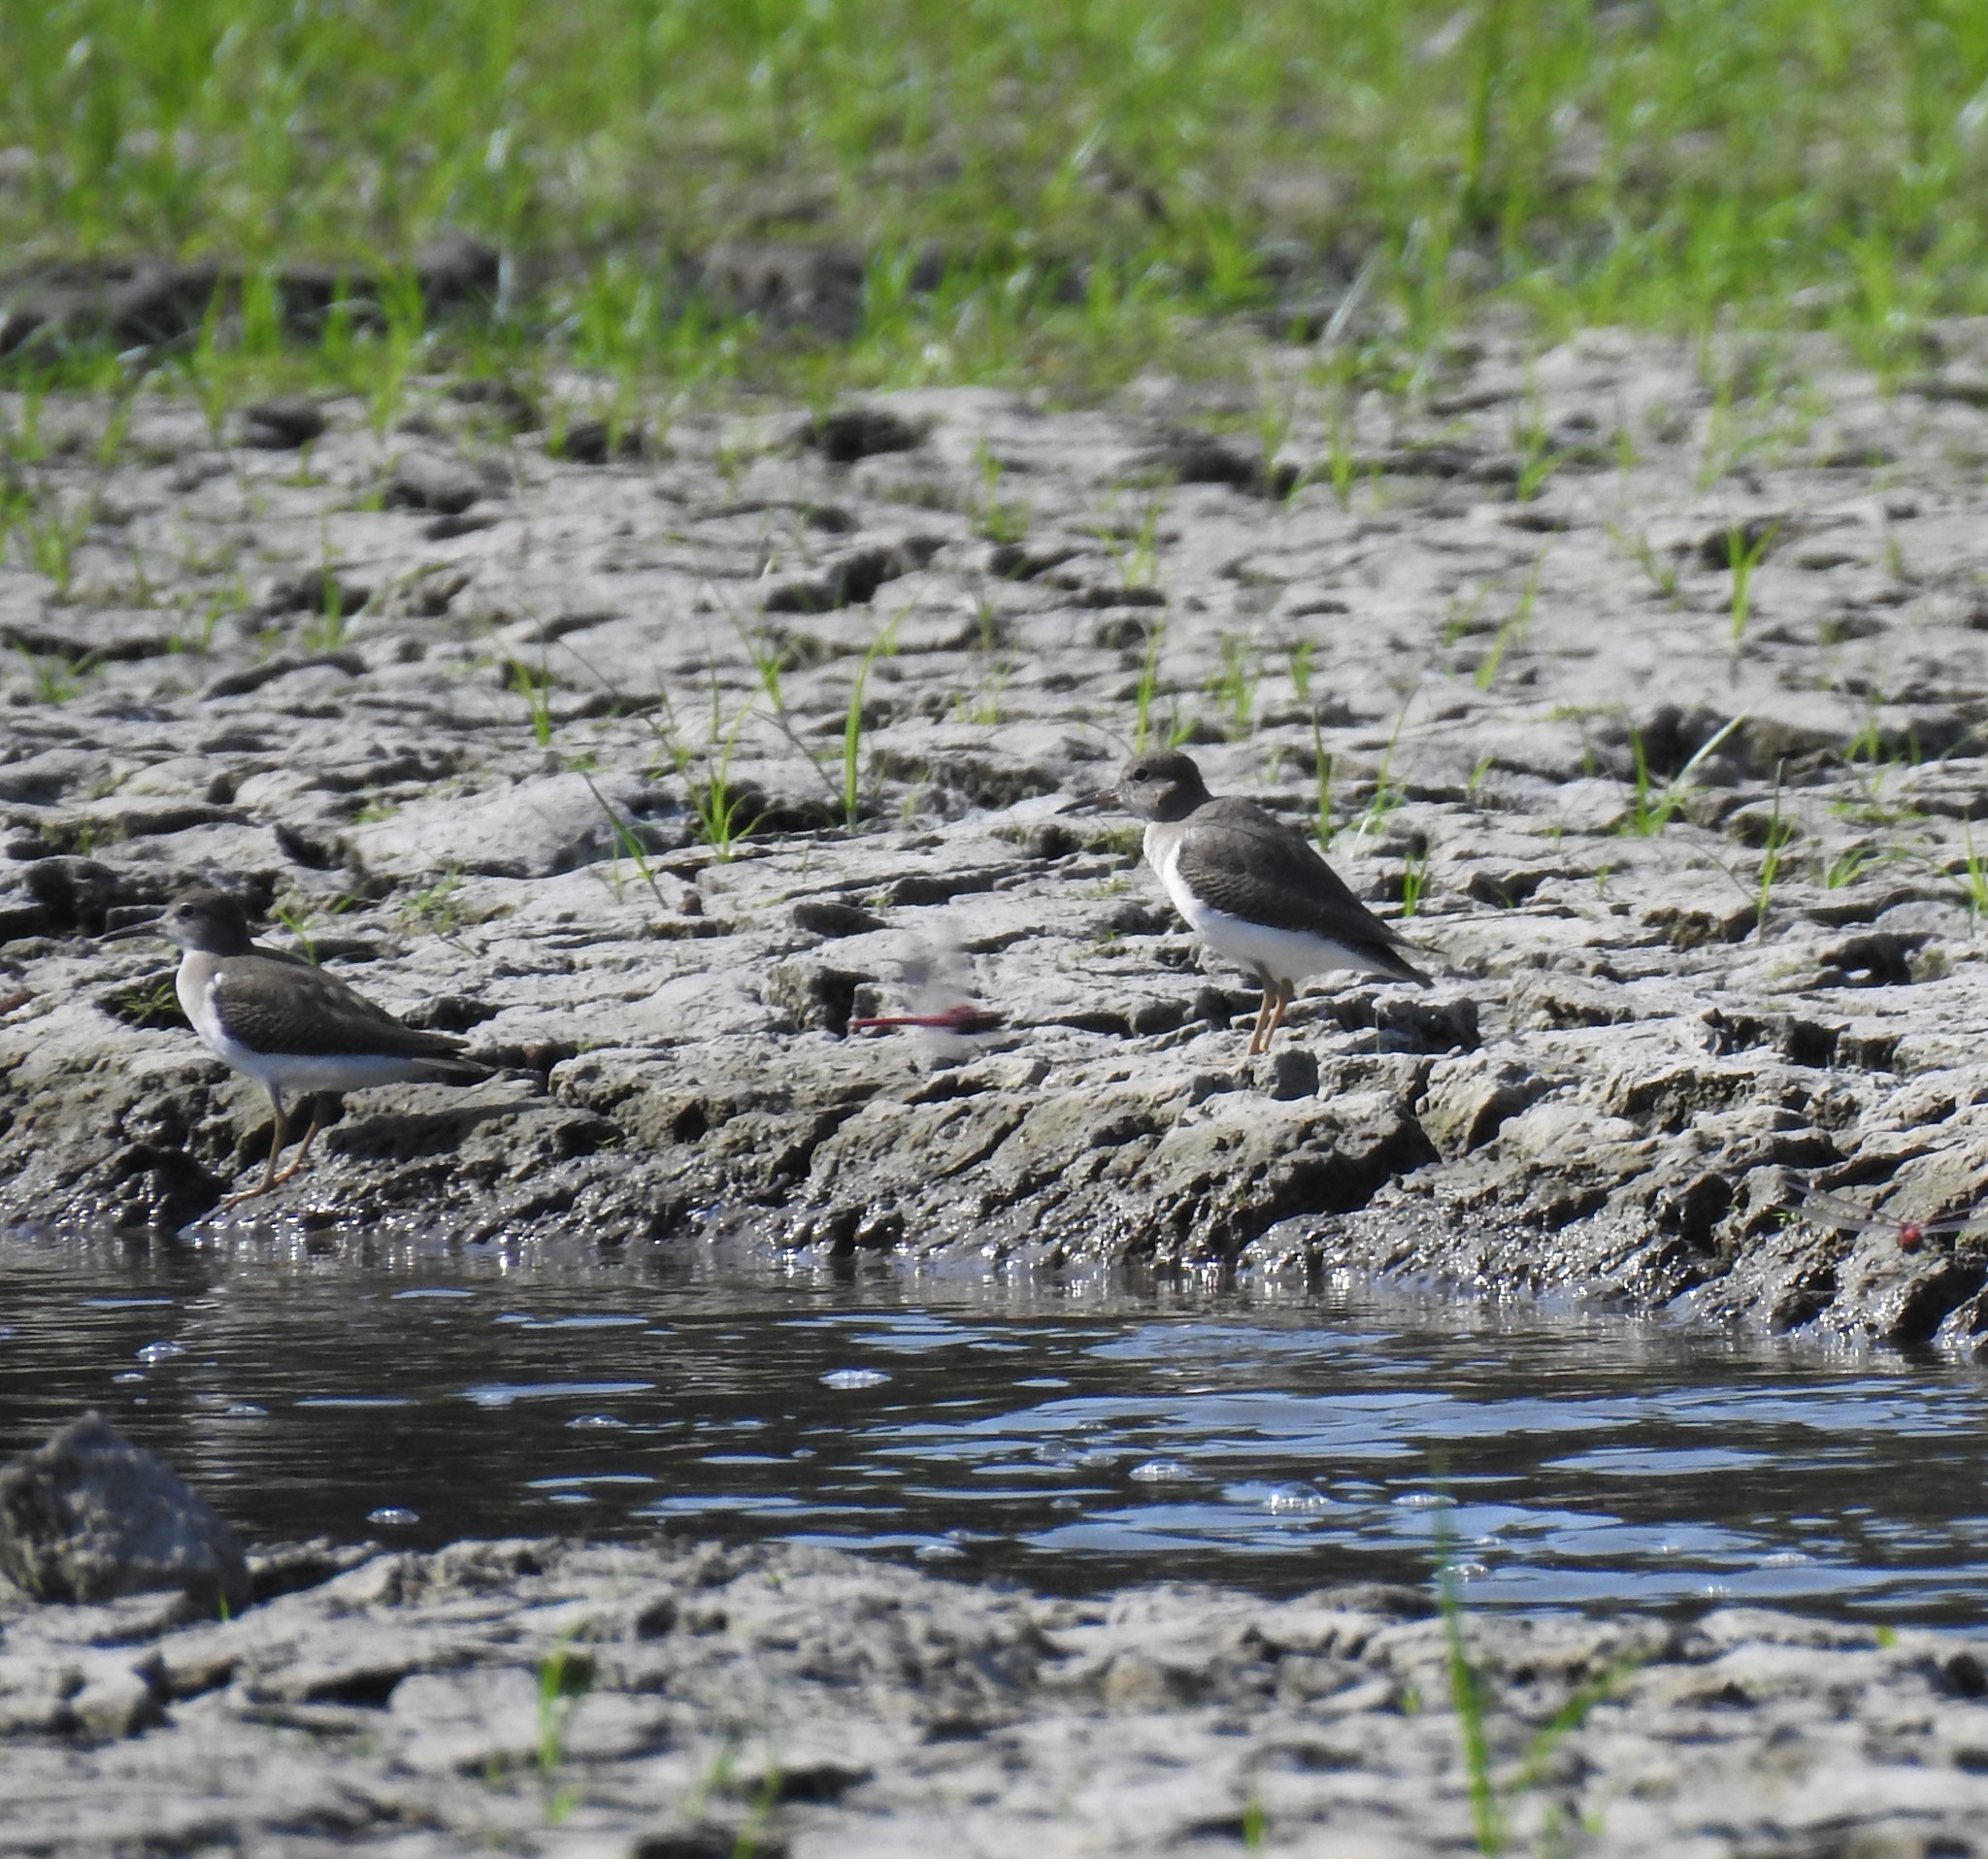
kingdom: Animalia
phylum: Chordata
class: Aves
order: Charadriiformes
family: Scolopacidae
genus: Actitis
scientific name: Actitis macularius
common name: Spotted sandpiper
